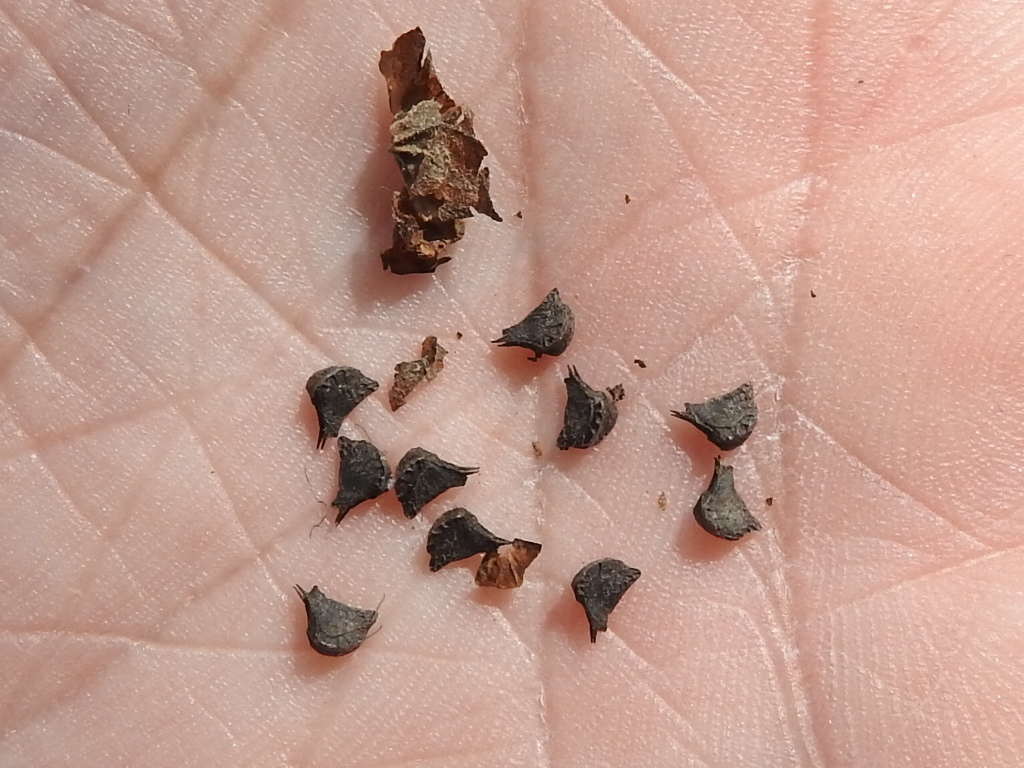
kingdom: Plantae
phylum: Tracheophyta
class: Magnoliopsida
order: Malvales
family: Malvaceae
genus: Sida
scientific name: Sida rhombifolia
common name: Queensland-hemp
